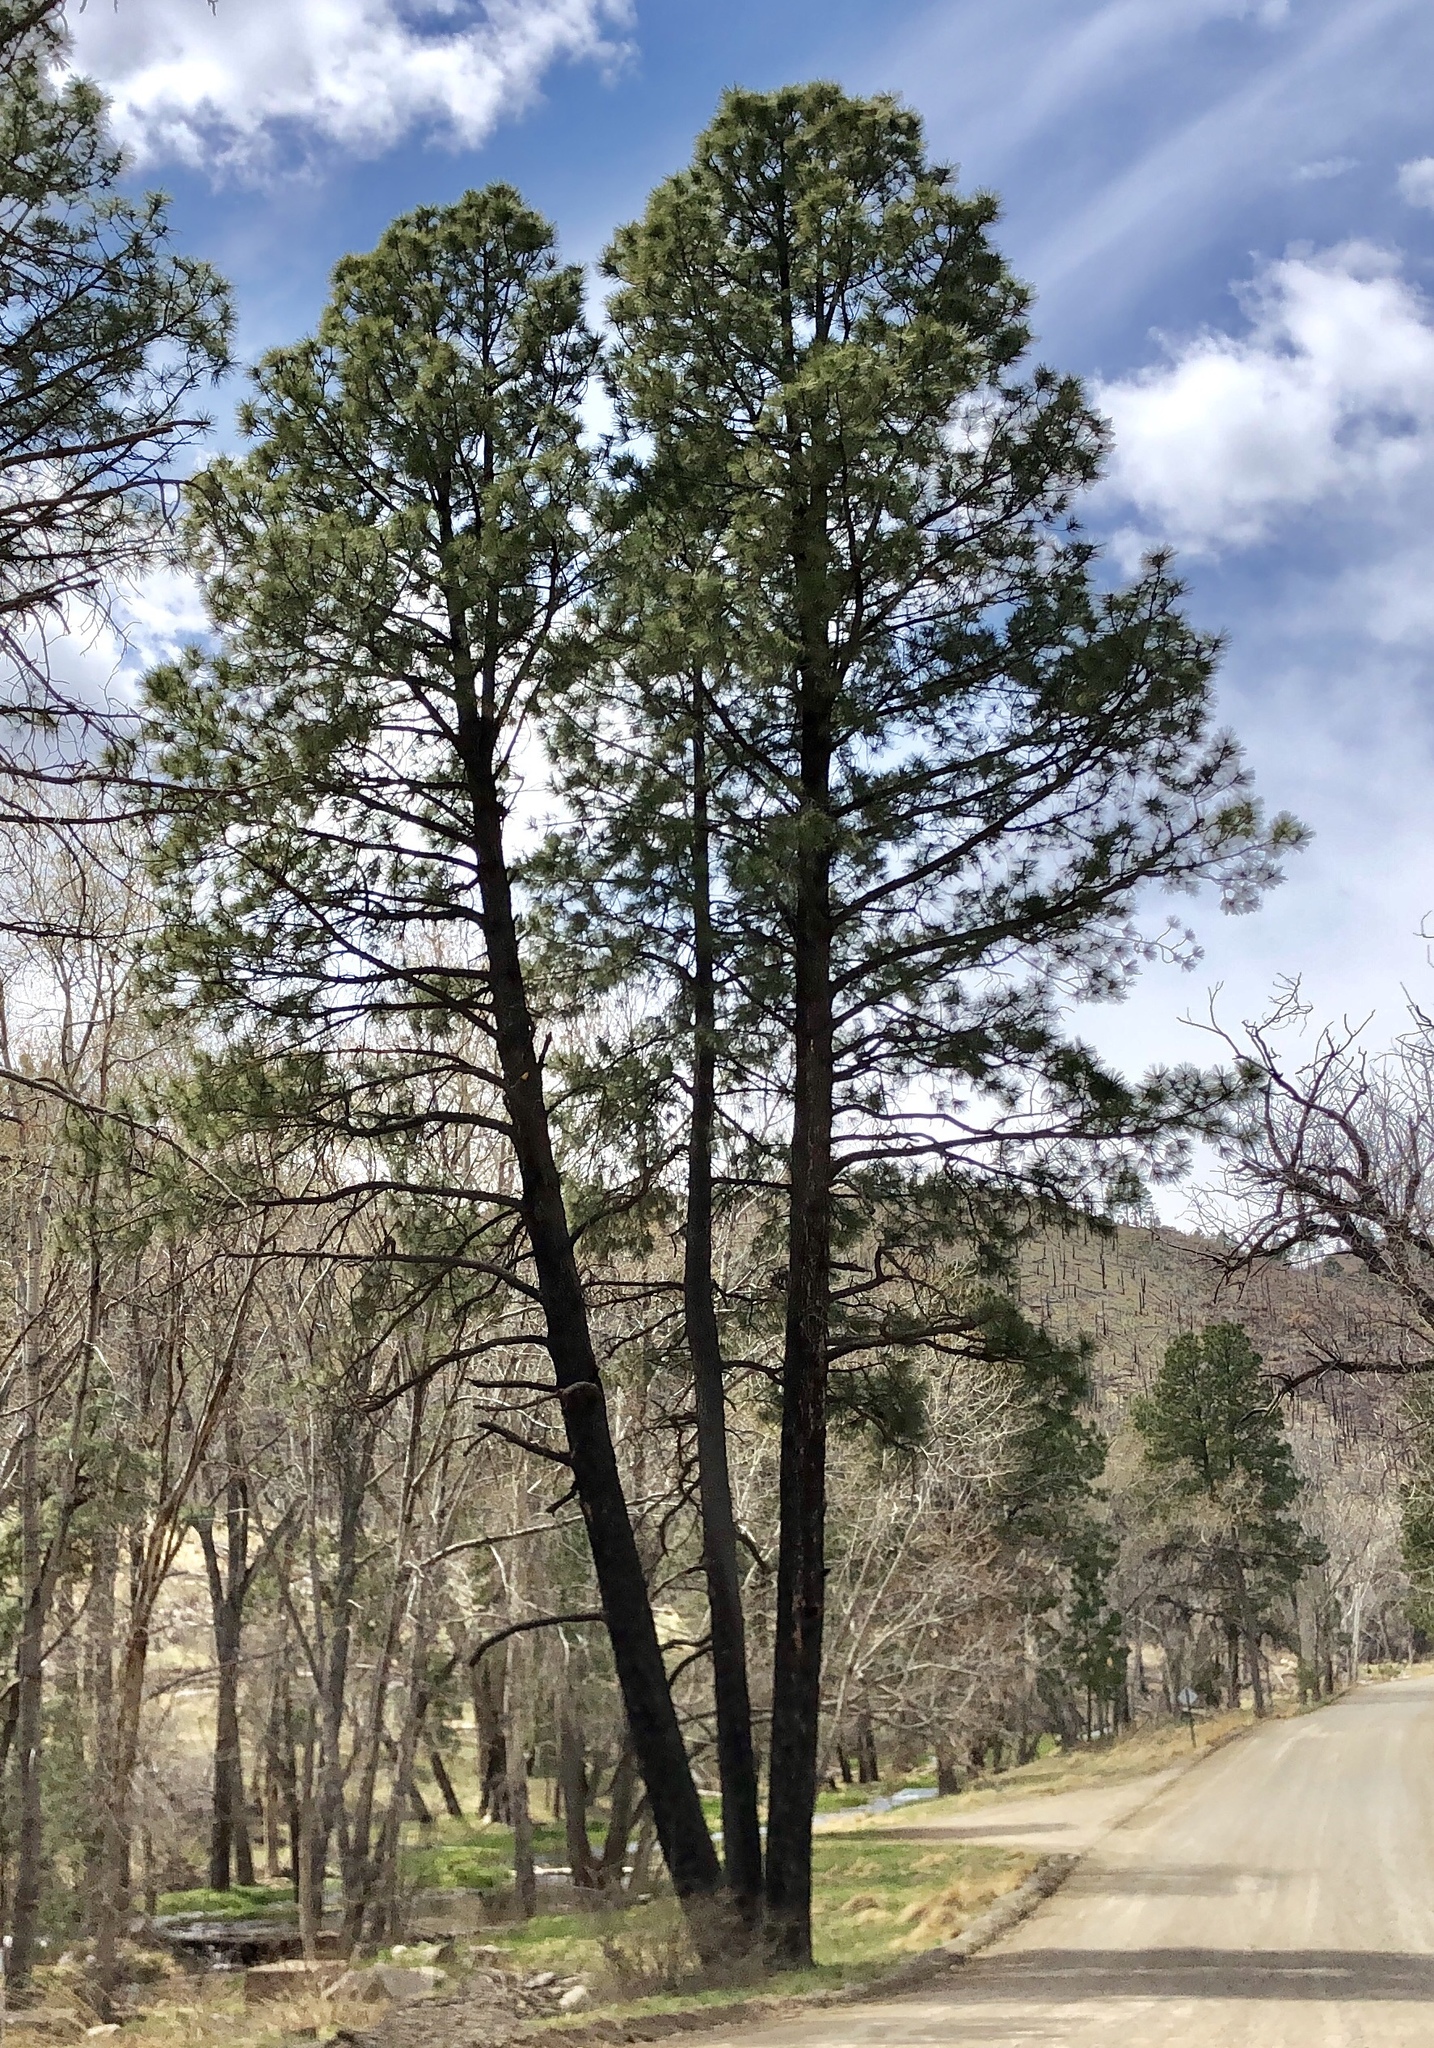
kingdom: Plantae
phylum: Tracheophyta
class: Pinopsida
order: Pinales
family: Pinaceae
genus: Pinus
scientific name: Pinus ponderosa
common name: Western yellow-pine
